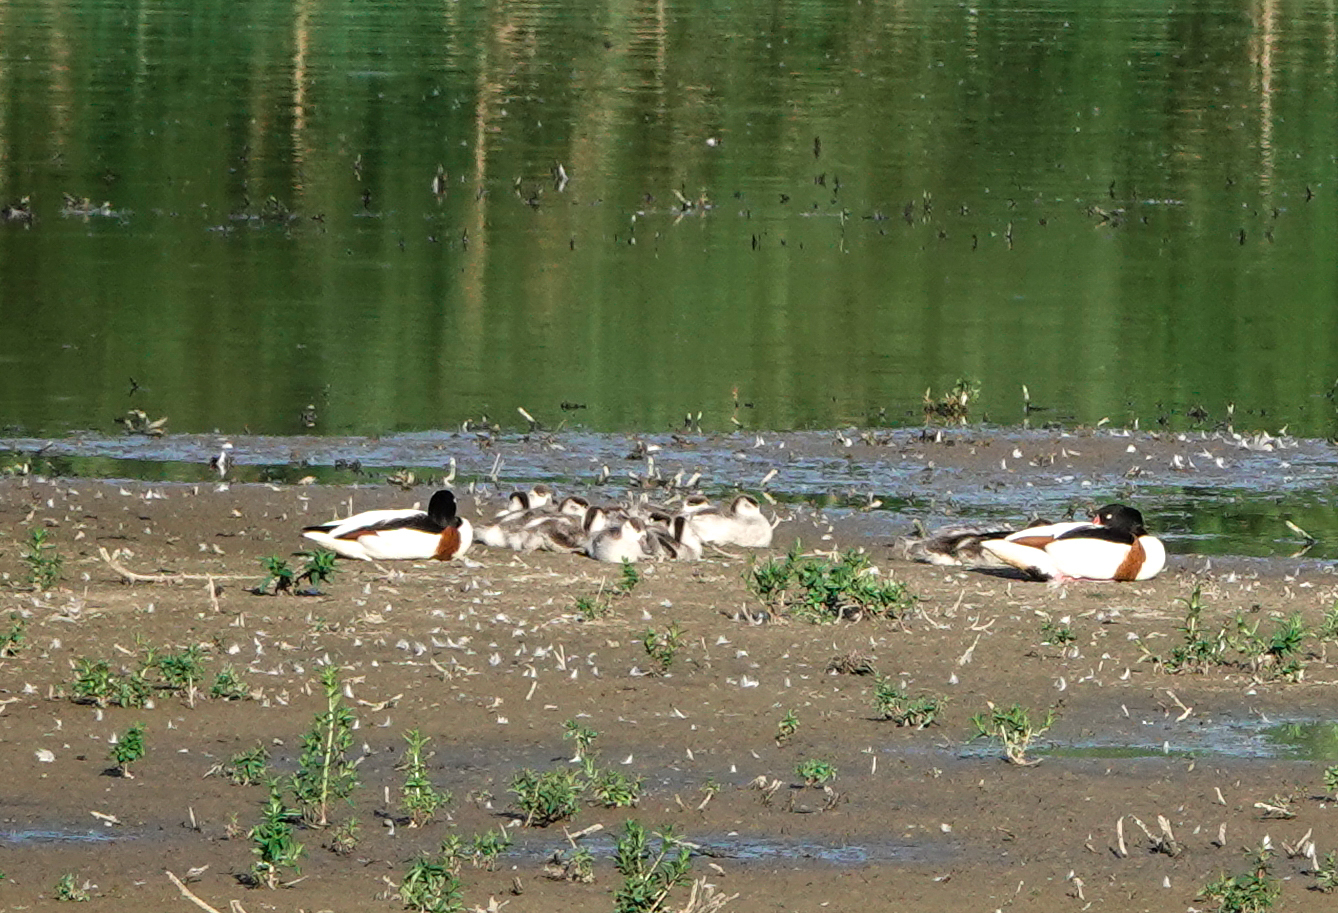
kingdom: Animalia
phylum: Chordata
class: Aves
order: Anseriformes
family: Anatidae
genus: Tadorna
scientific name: Tadorna tadorna
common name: Common shelduck
